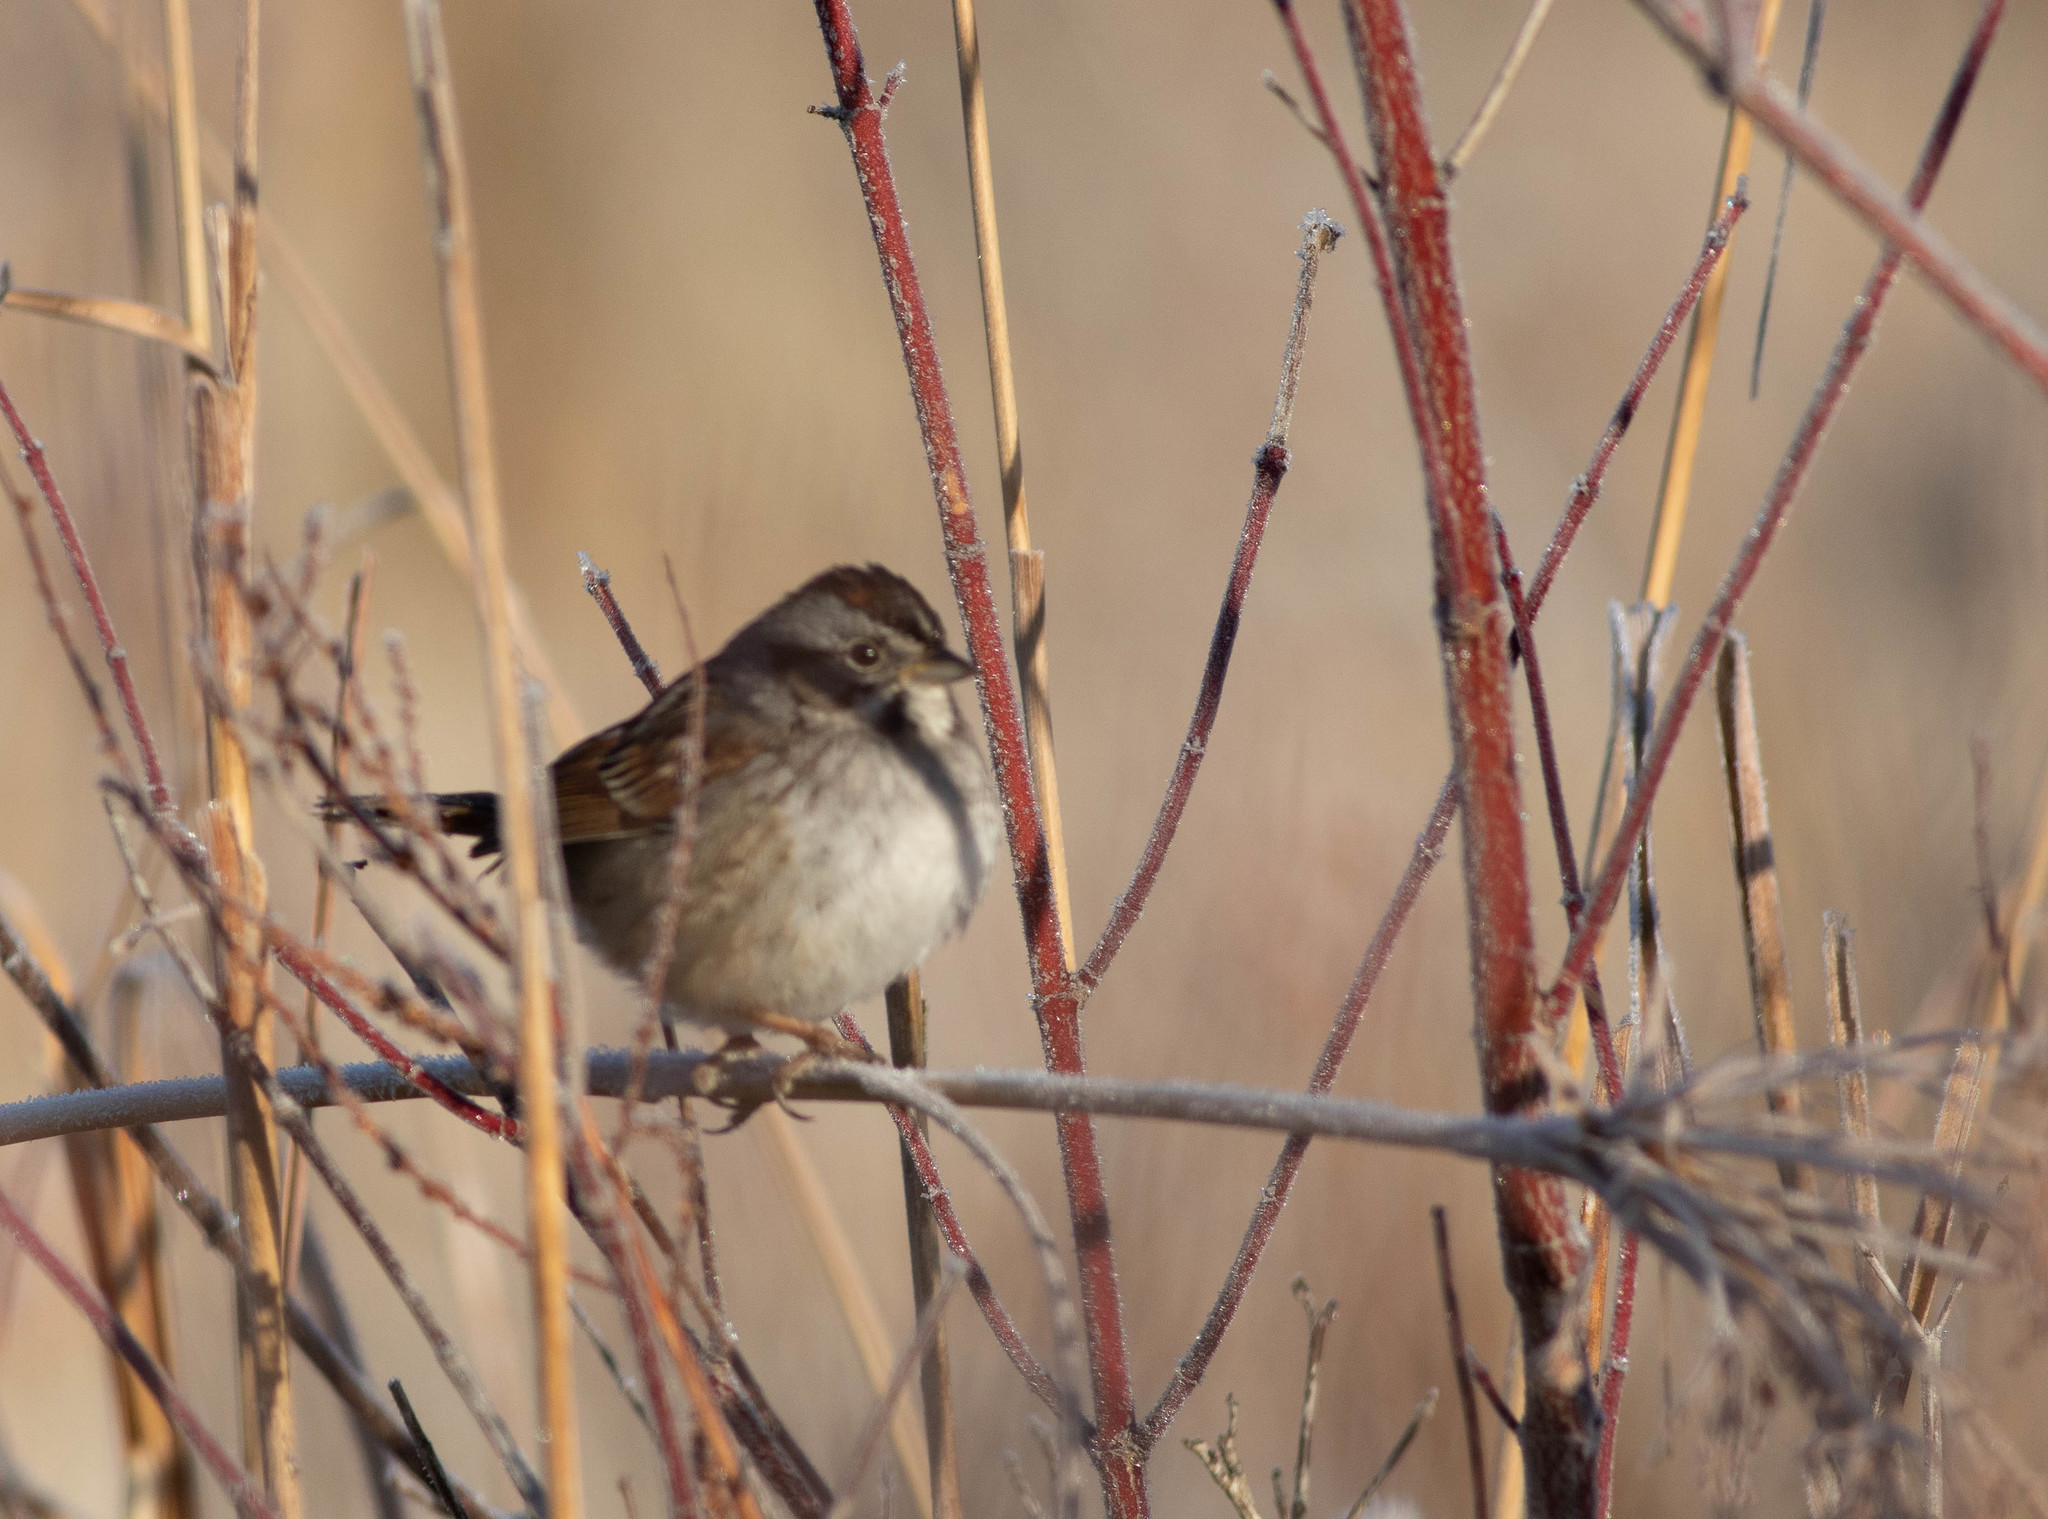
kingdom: Animalia
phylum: Chordata
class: Aves
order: Passeriformes
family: Passerellidae
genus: Melospiza
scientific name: Melospiza georgiana
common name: Swamp sparrow
